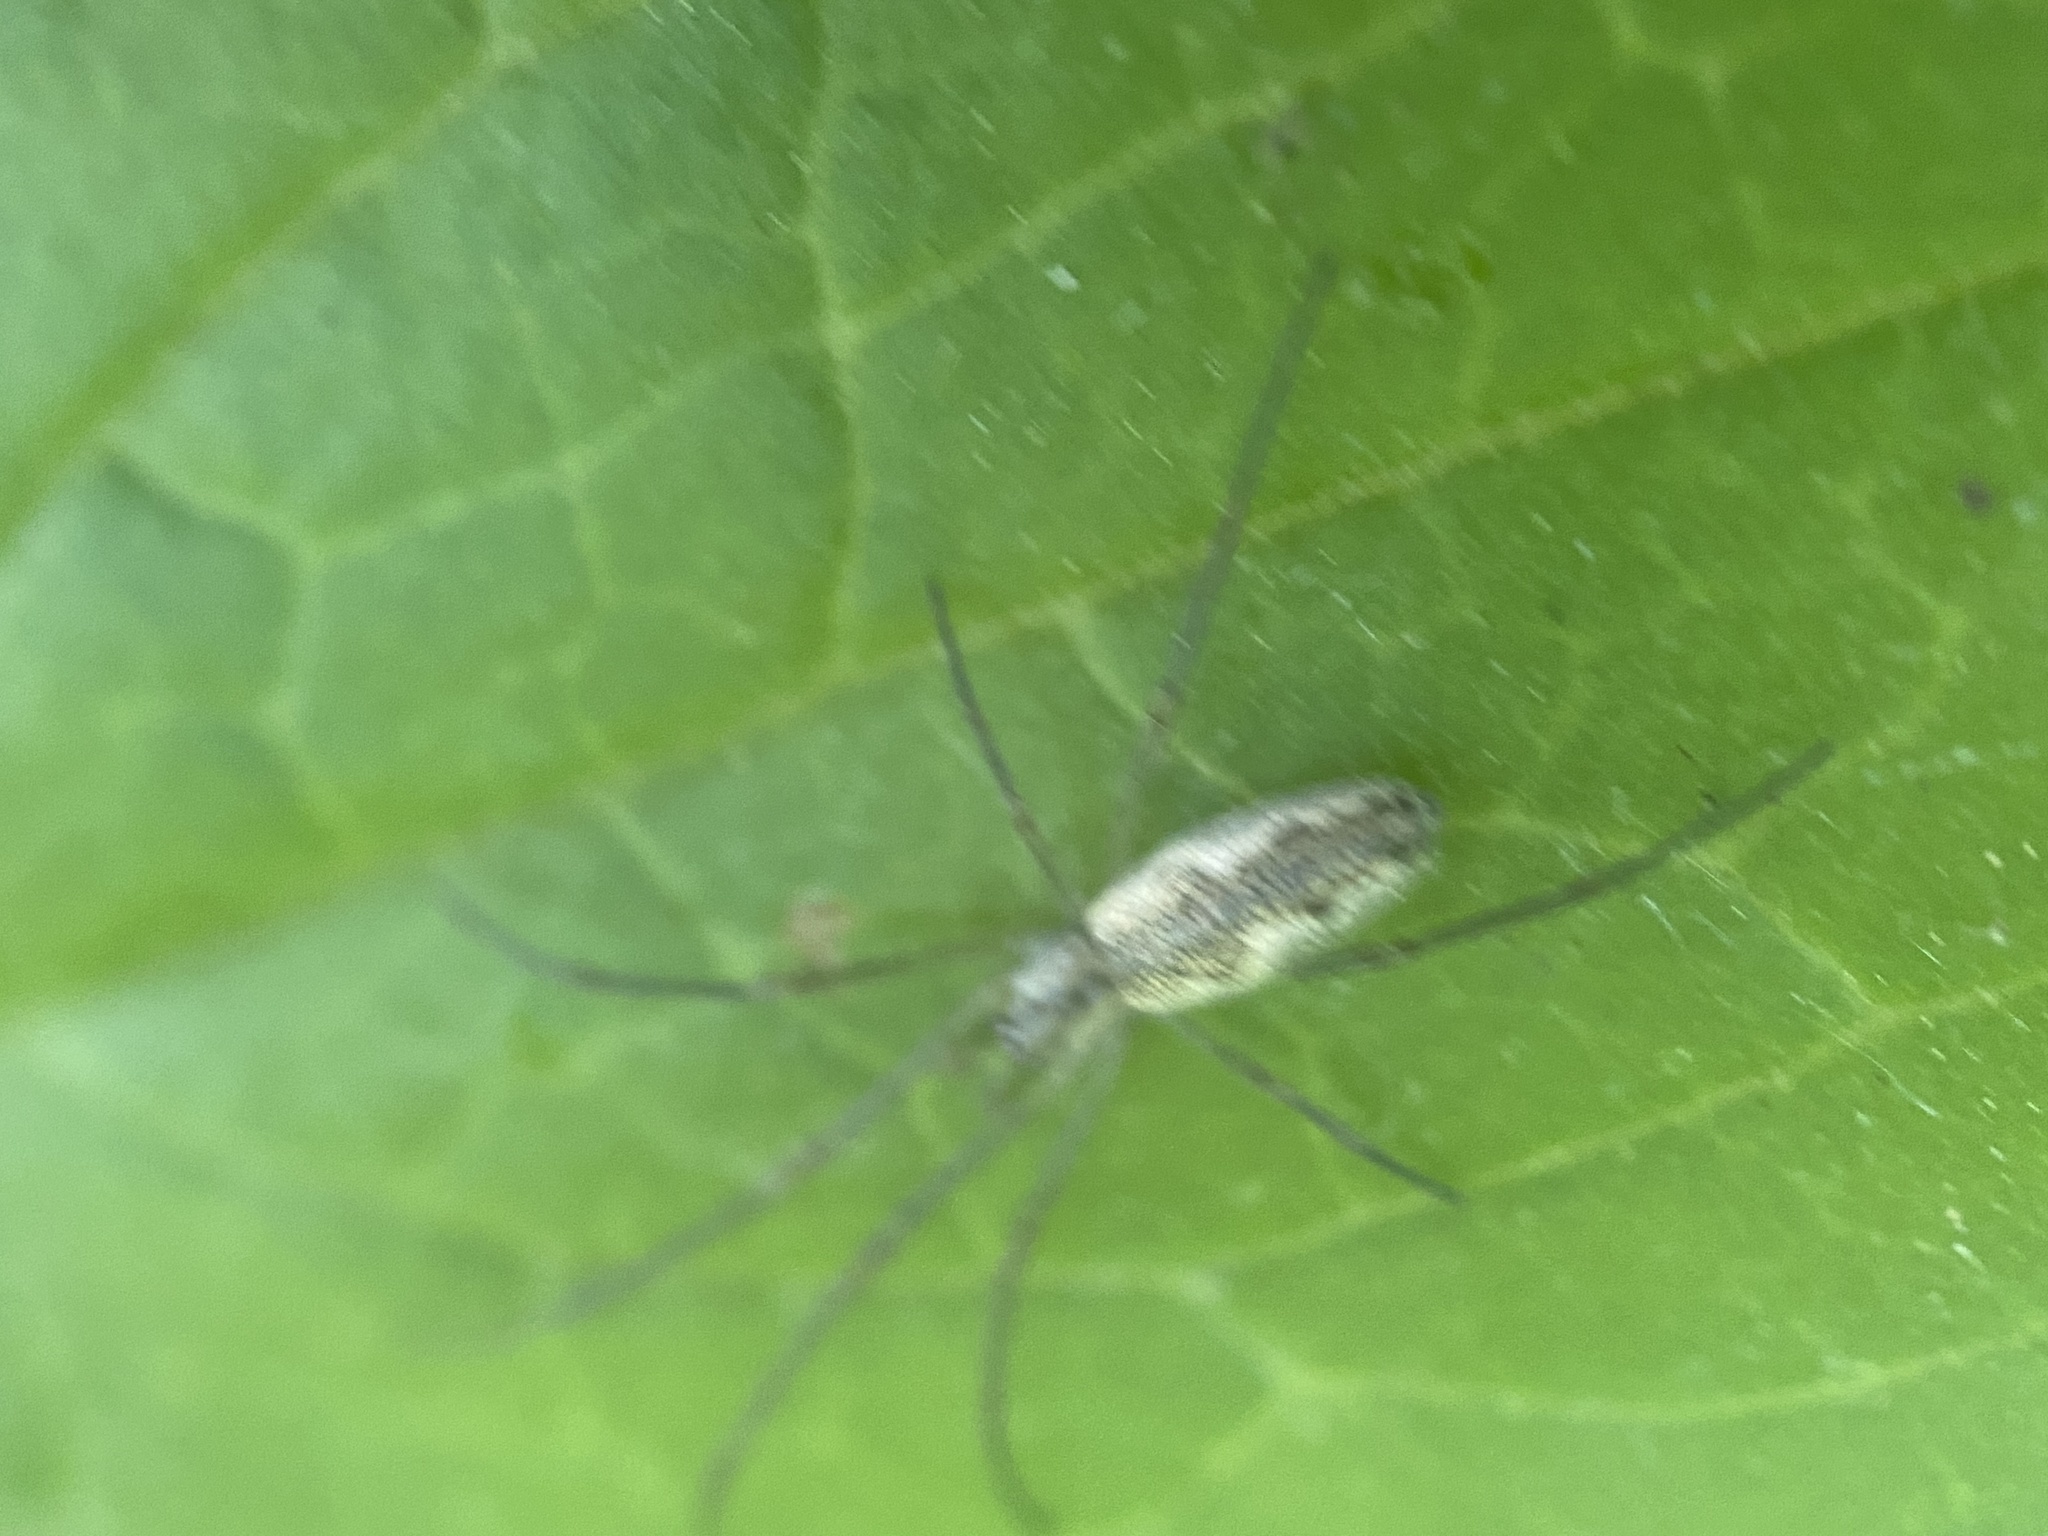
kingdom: Animalia
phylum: Arthropoda
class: Arachnida
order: Araneae
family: Tetragnathidae
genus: Tetragnatha
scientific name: Tetragnatha
